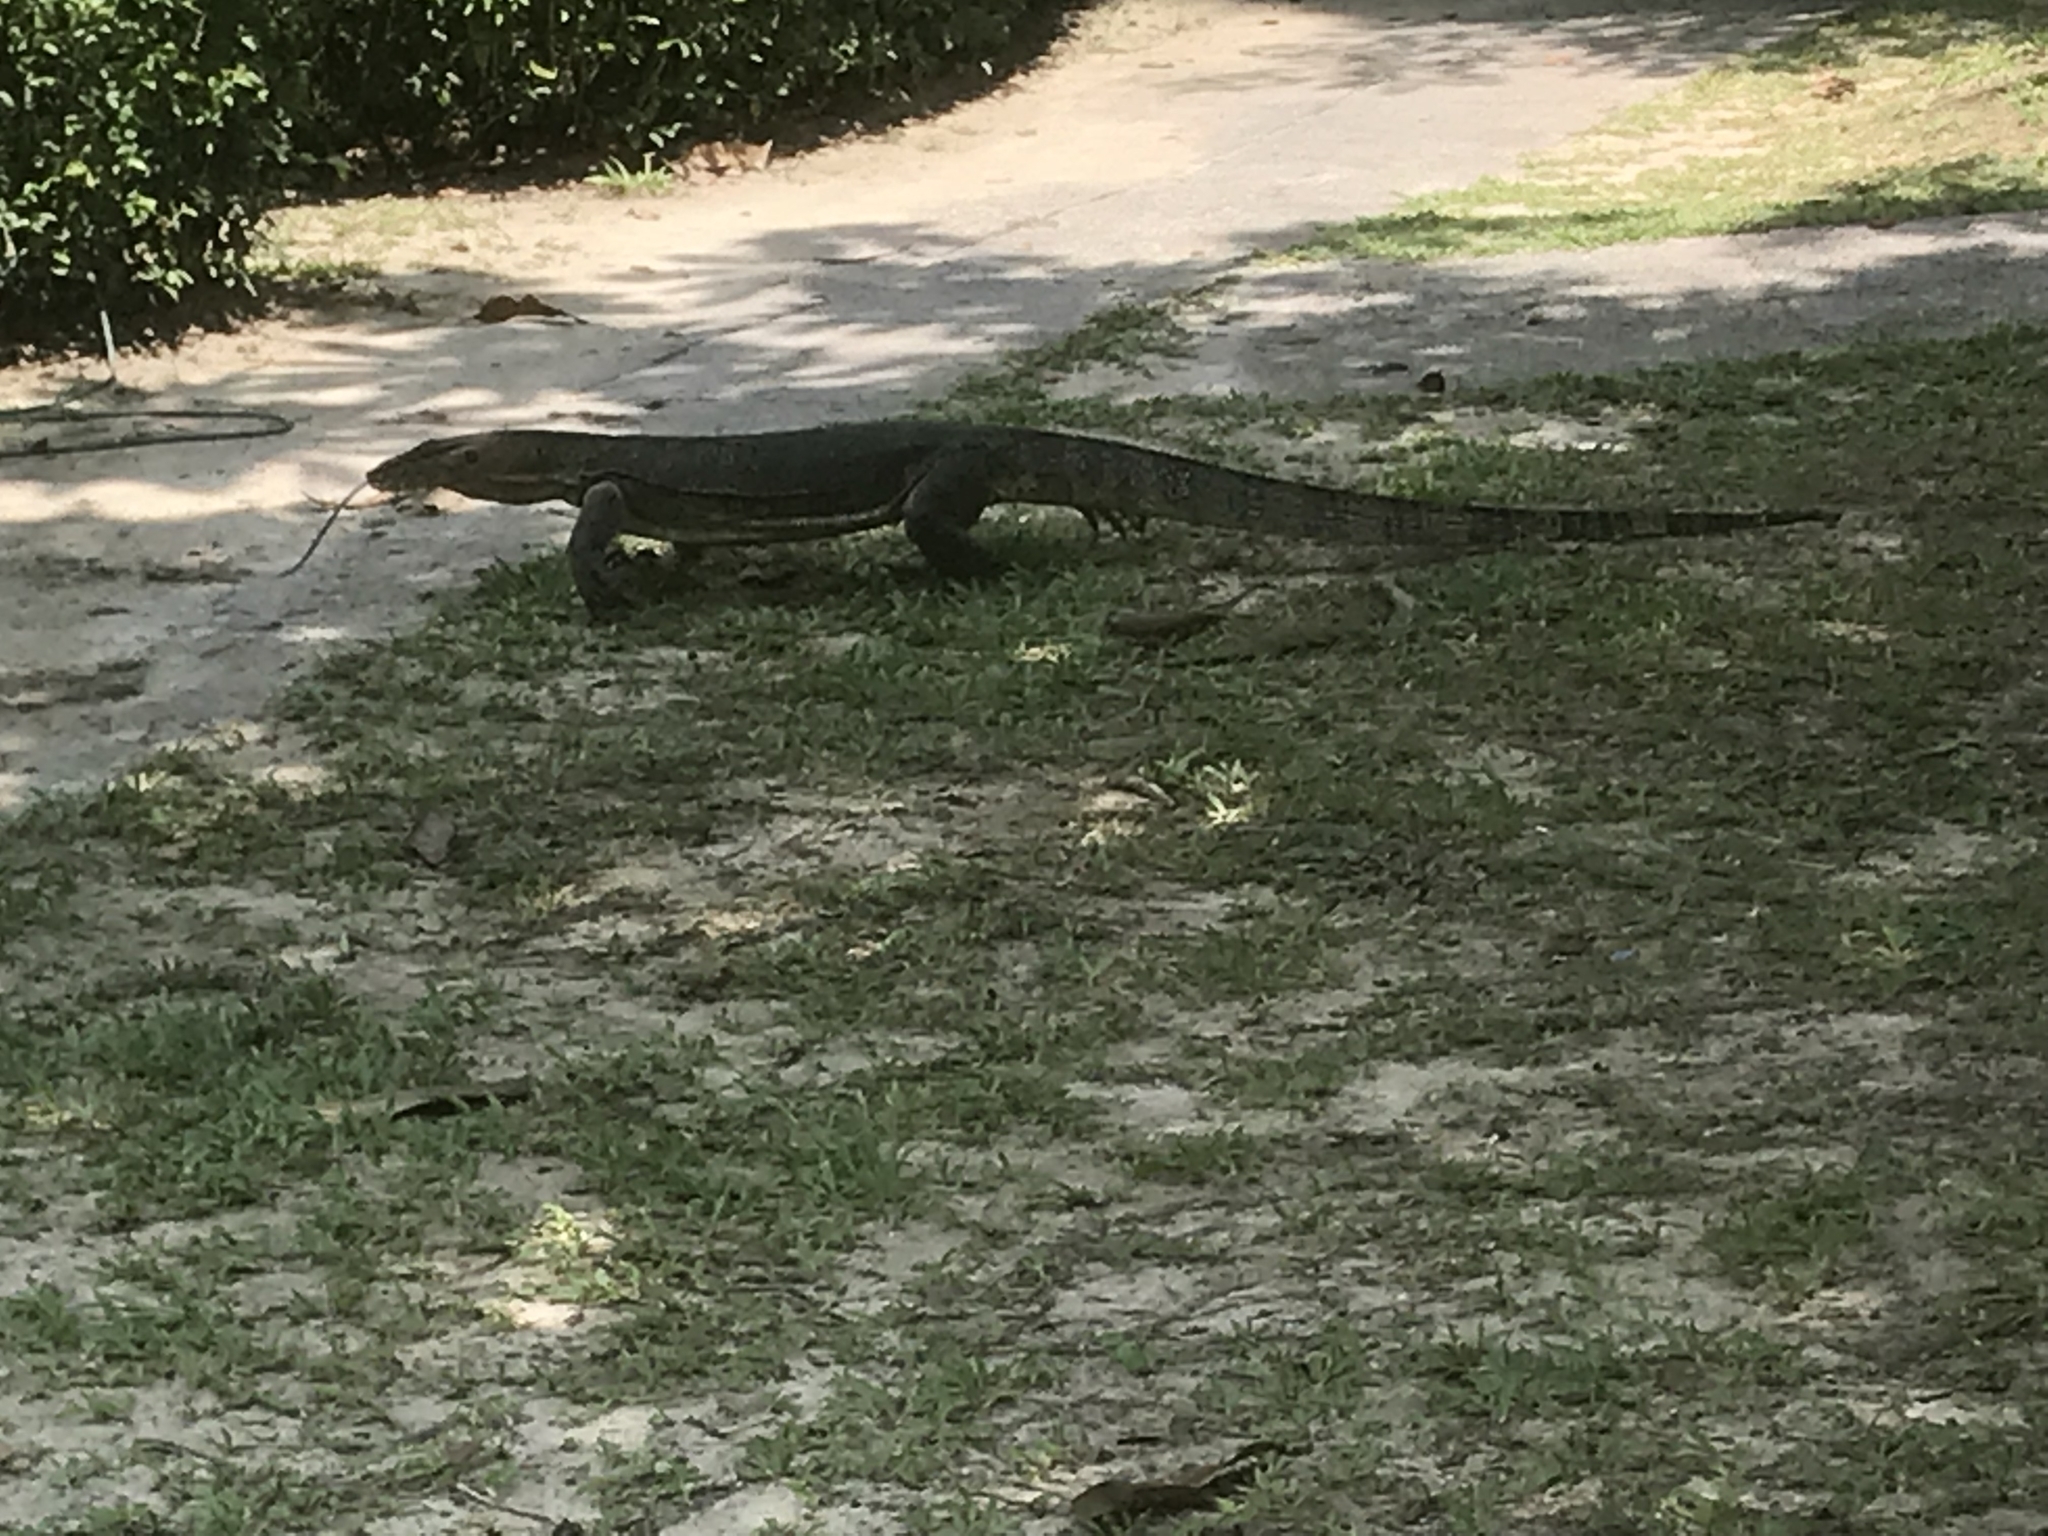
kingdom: Animalia
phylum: Chordata
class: Squamata
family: Varanidae
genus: Varanus
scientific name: Varanus salvator
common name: Common water monitor
